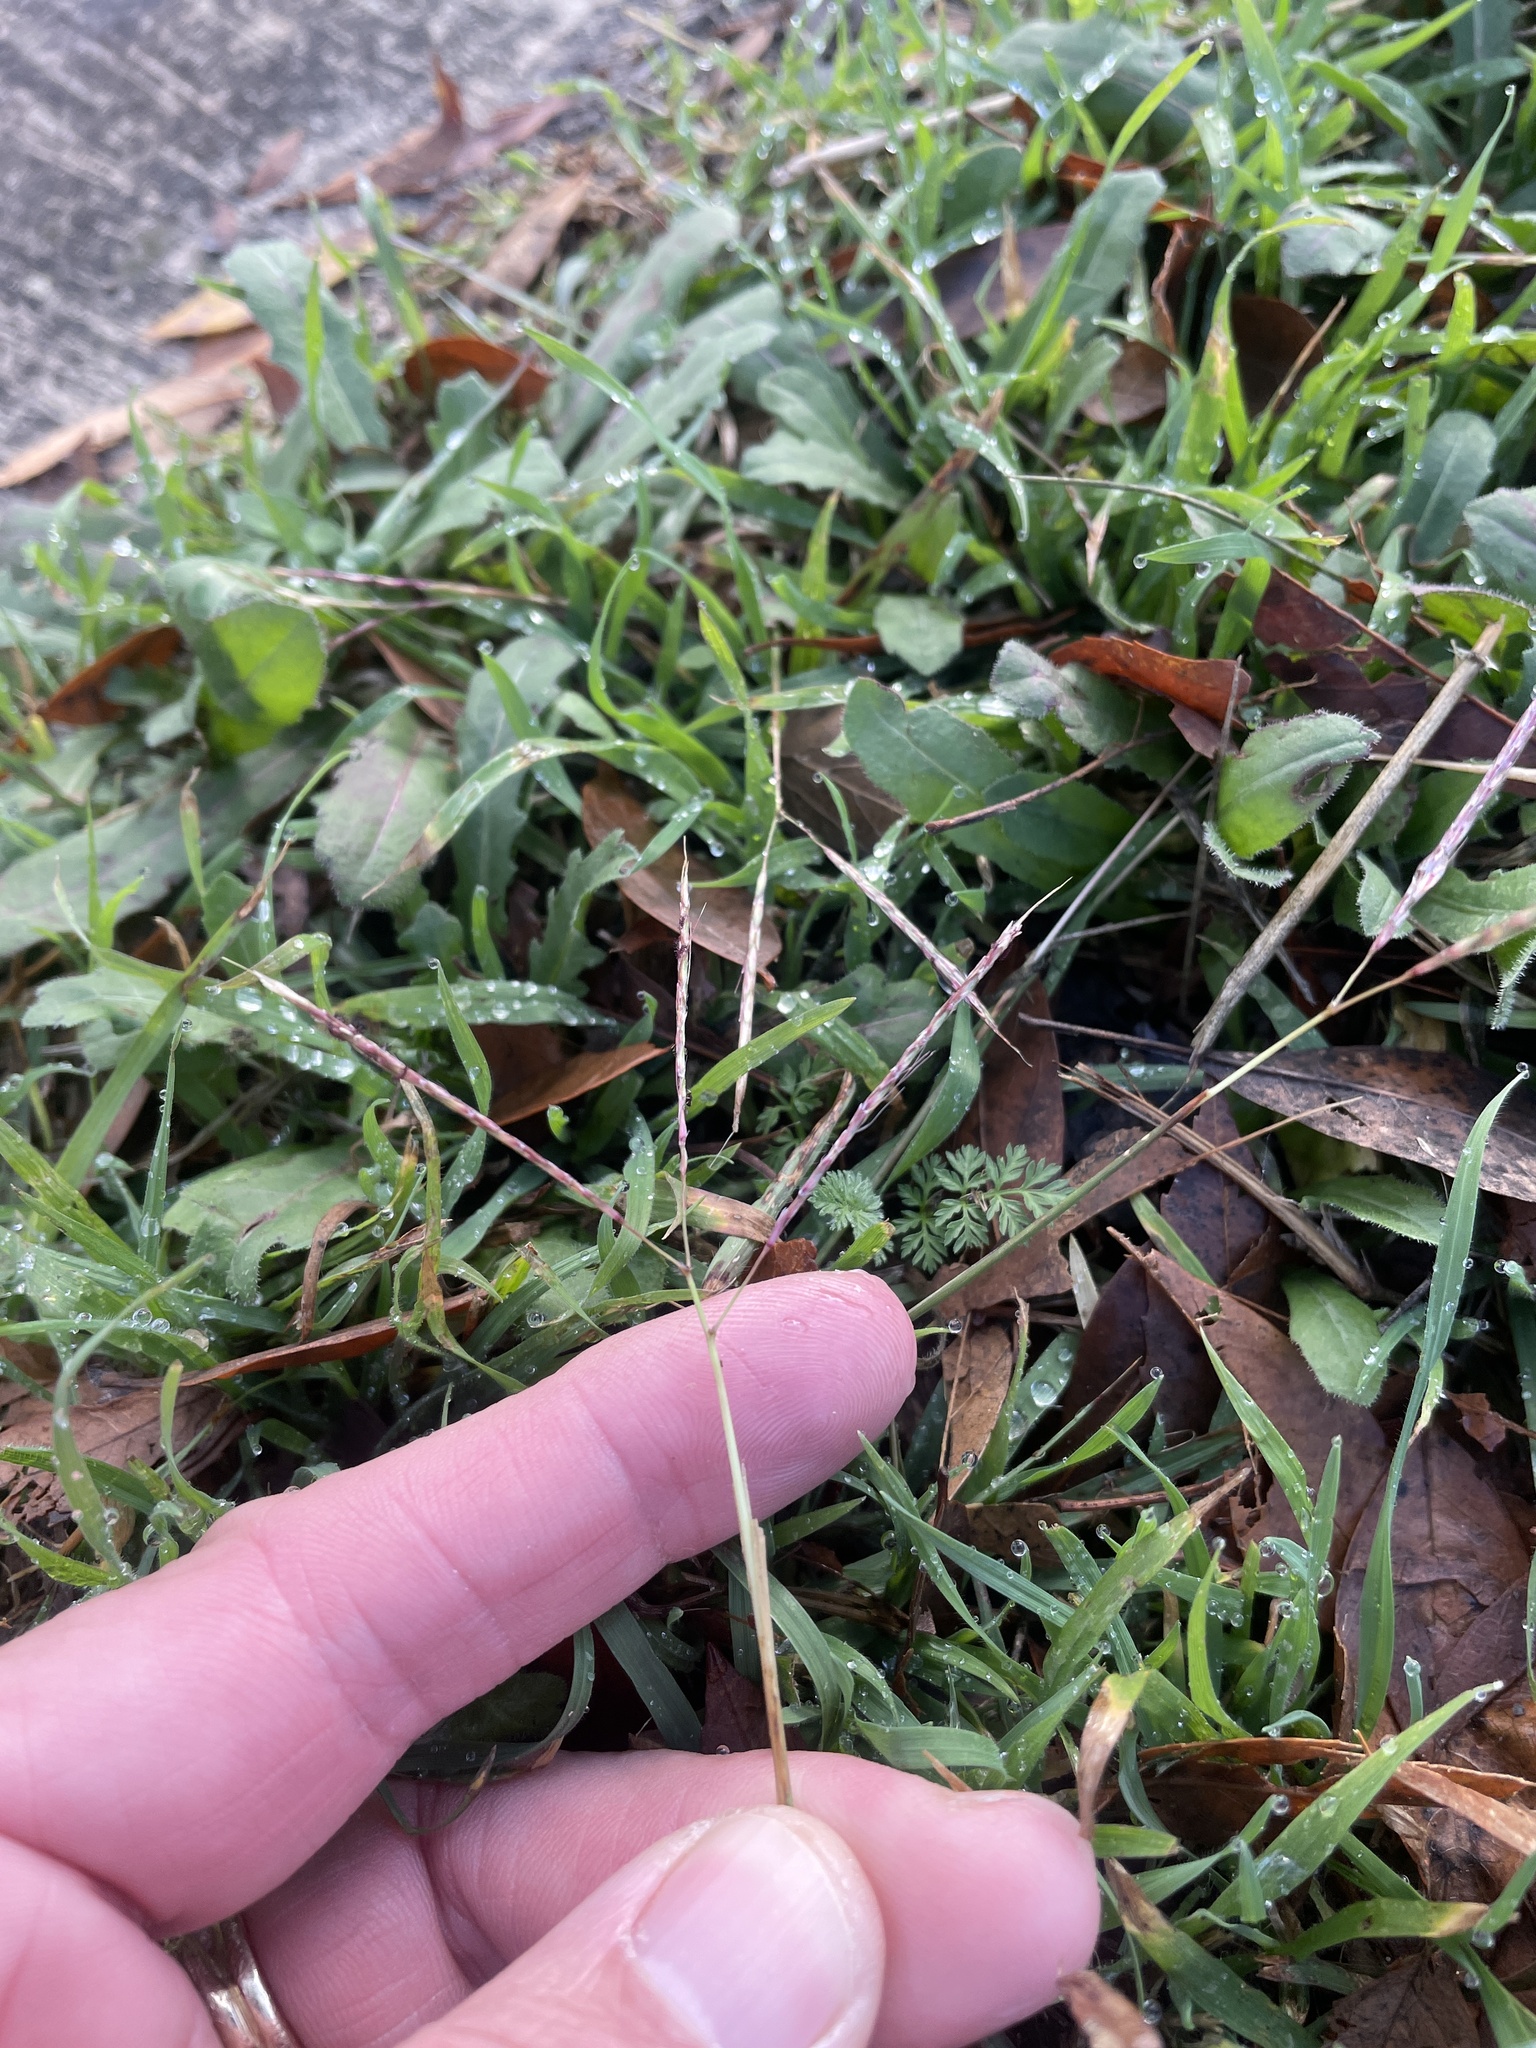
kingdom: Plantae
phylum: Tracheophyta
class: Liliopsida
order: Poales
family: Poaceae
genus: Bothriochloa
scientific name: Bothriochloa ischaemum
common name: Yellow bluestem
